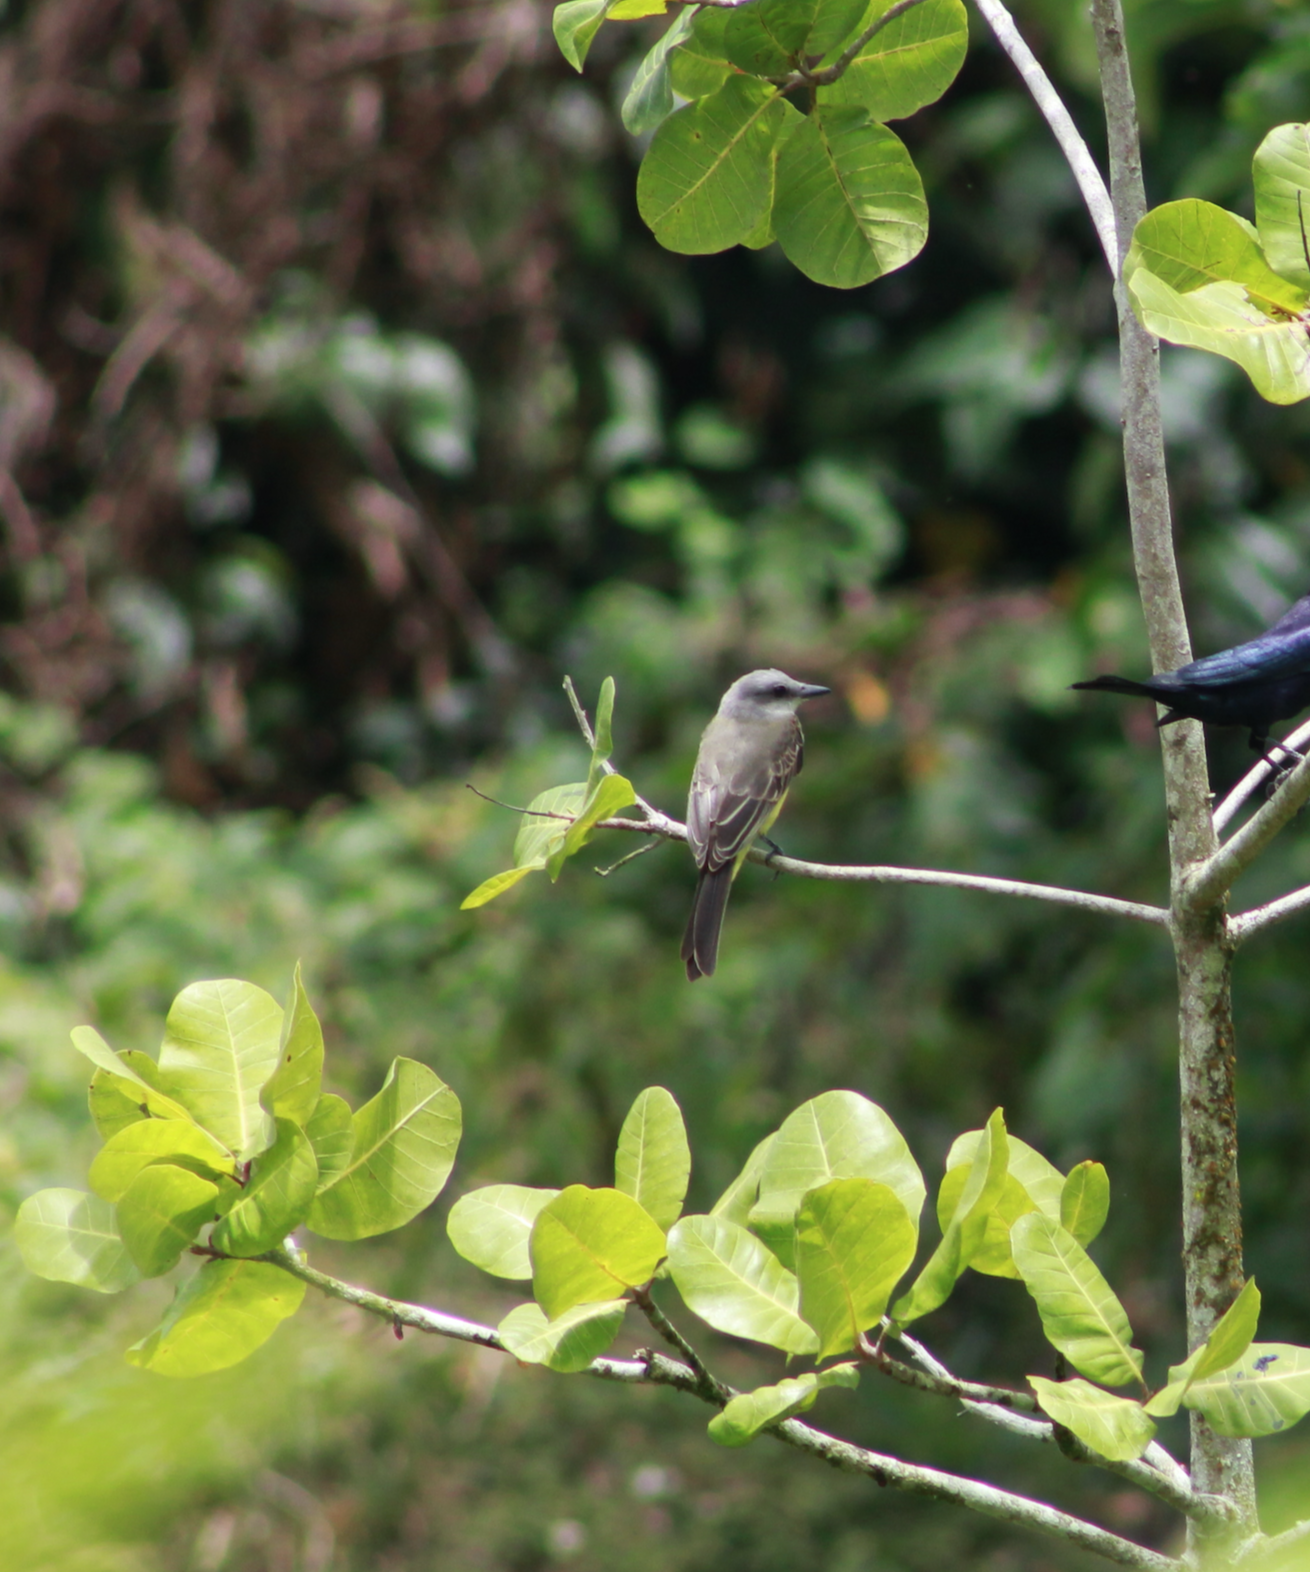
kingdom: Animalia
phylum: Chordata
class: Aves
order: Passeriformes
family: Tyrannidae
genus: Tyrannus
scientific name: Tyrannus melancholicus
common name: Tropical kingbird
